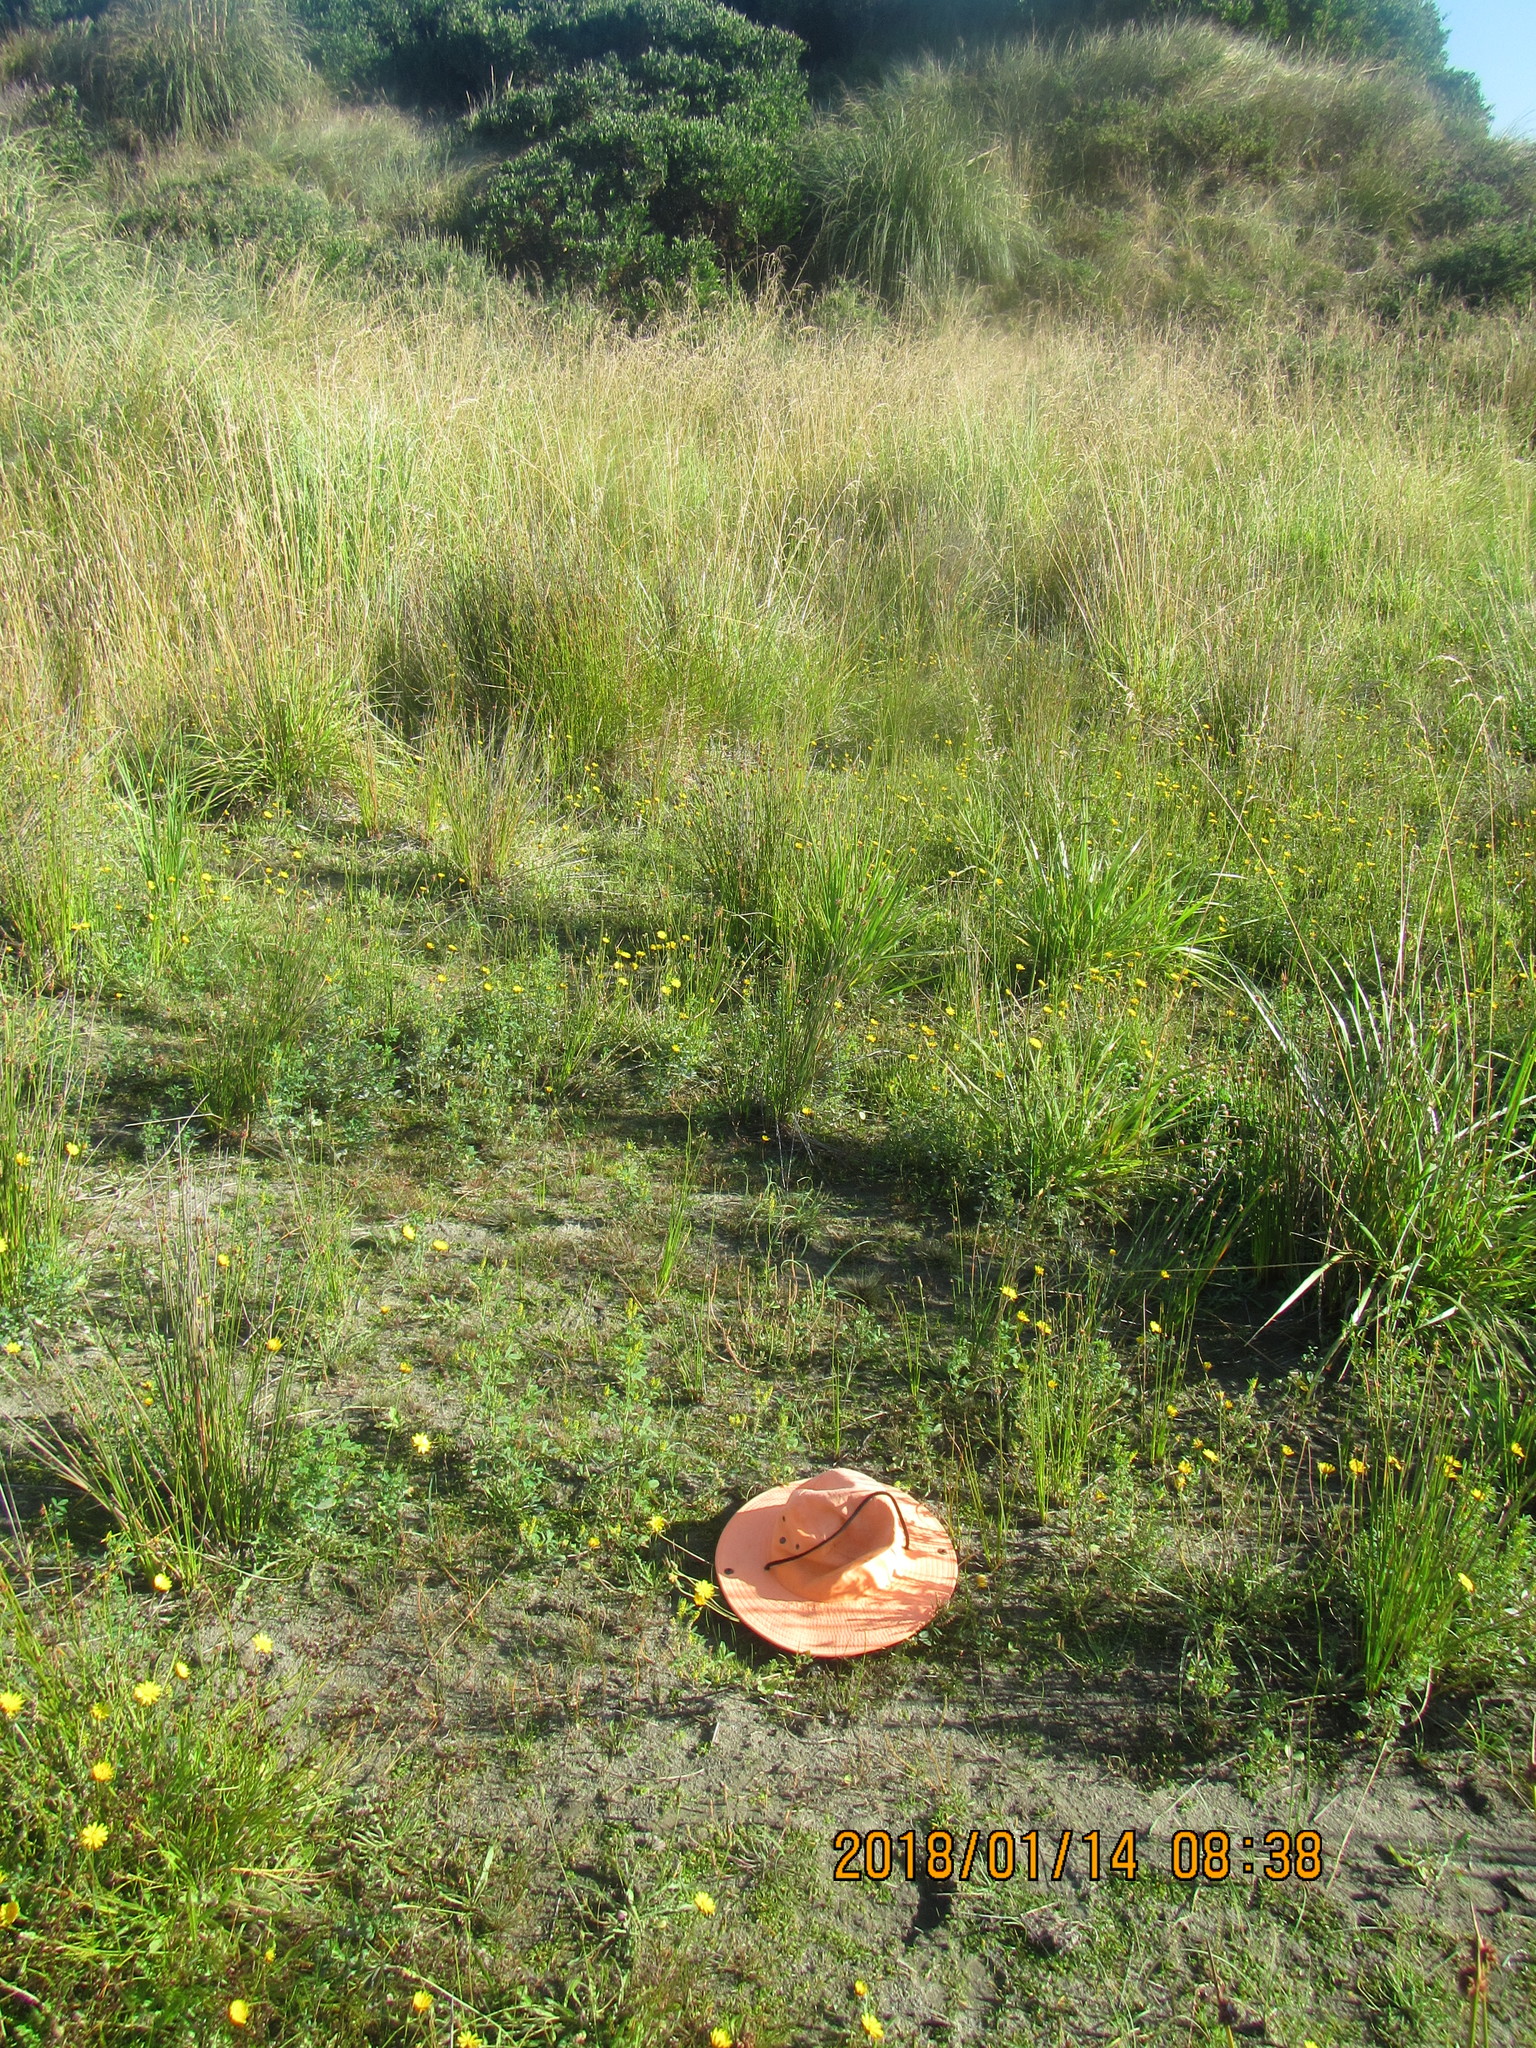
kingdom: Plantae
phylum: Tracheophyta
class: Magnoliopsida
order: Fabales
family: Fabaceae
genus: Melilotus
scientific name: Melilotus indicus
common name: Small melilot
